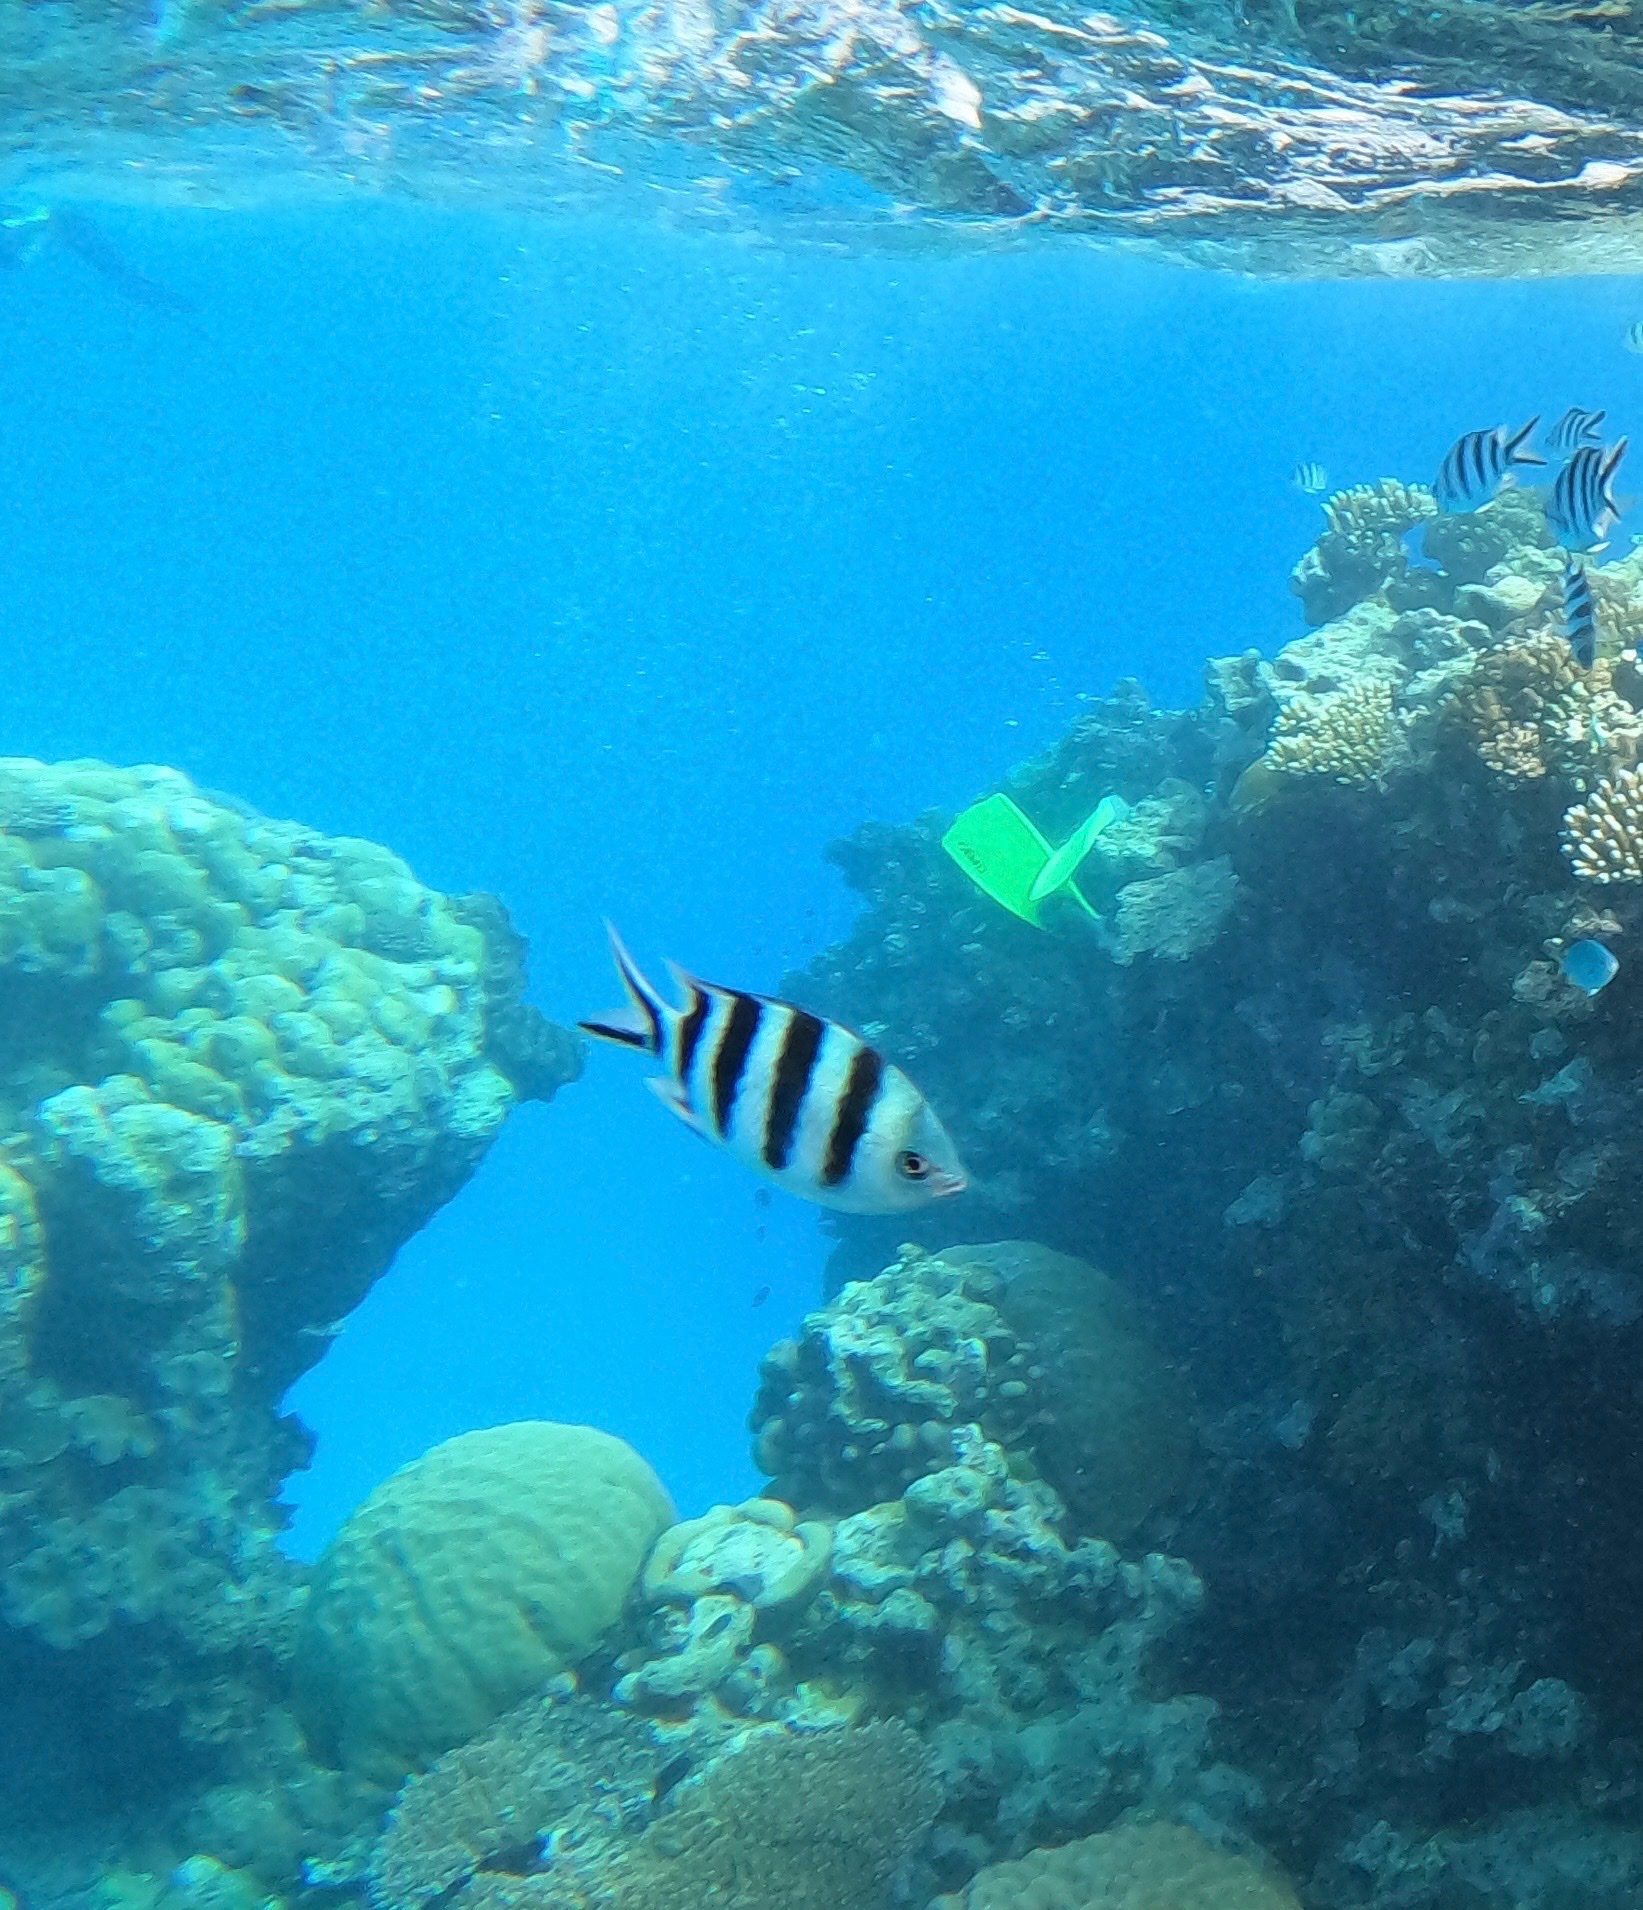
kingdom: Animalia
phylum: Chordata
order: Perciformes
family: Pomacentridae
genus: Abudefduf
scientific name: Abudefduf sexfasciatus
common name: Scissortail sergeant
